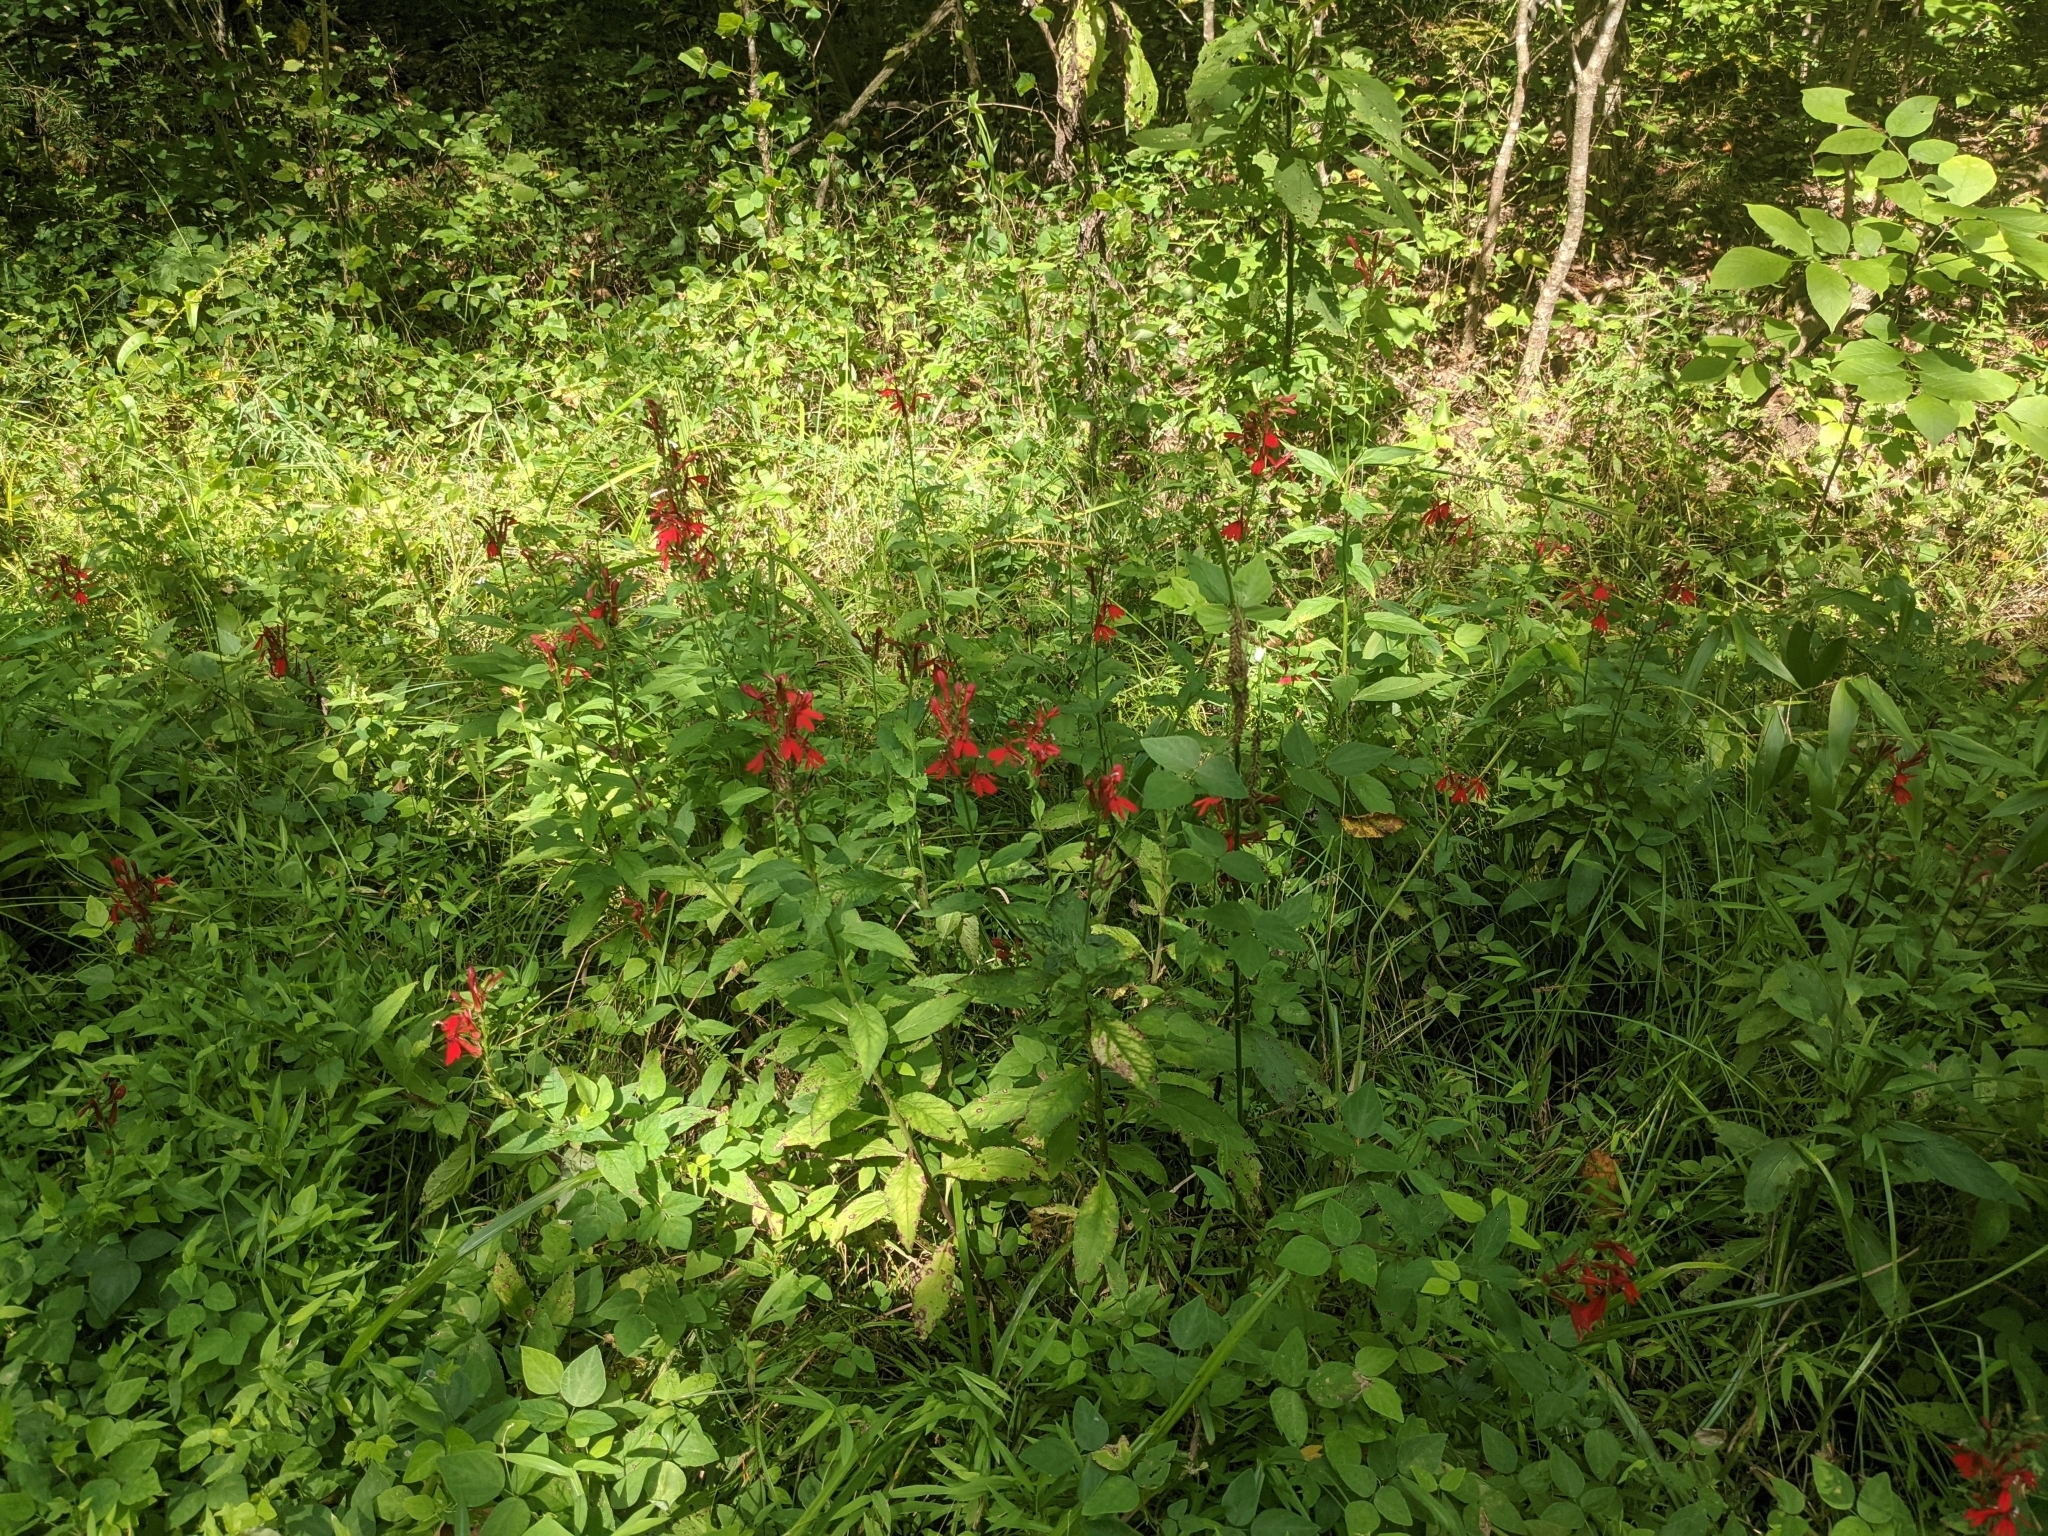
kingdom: Plantae
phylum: Tracheophyta
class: Magnoliopsida
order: Asterales
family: Campanulaceae
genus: Lobelia
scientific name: Lobelia cardinalis
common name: Cardinal flower
